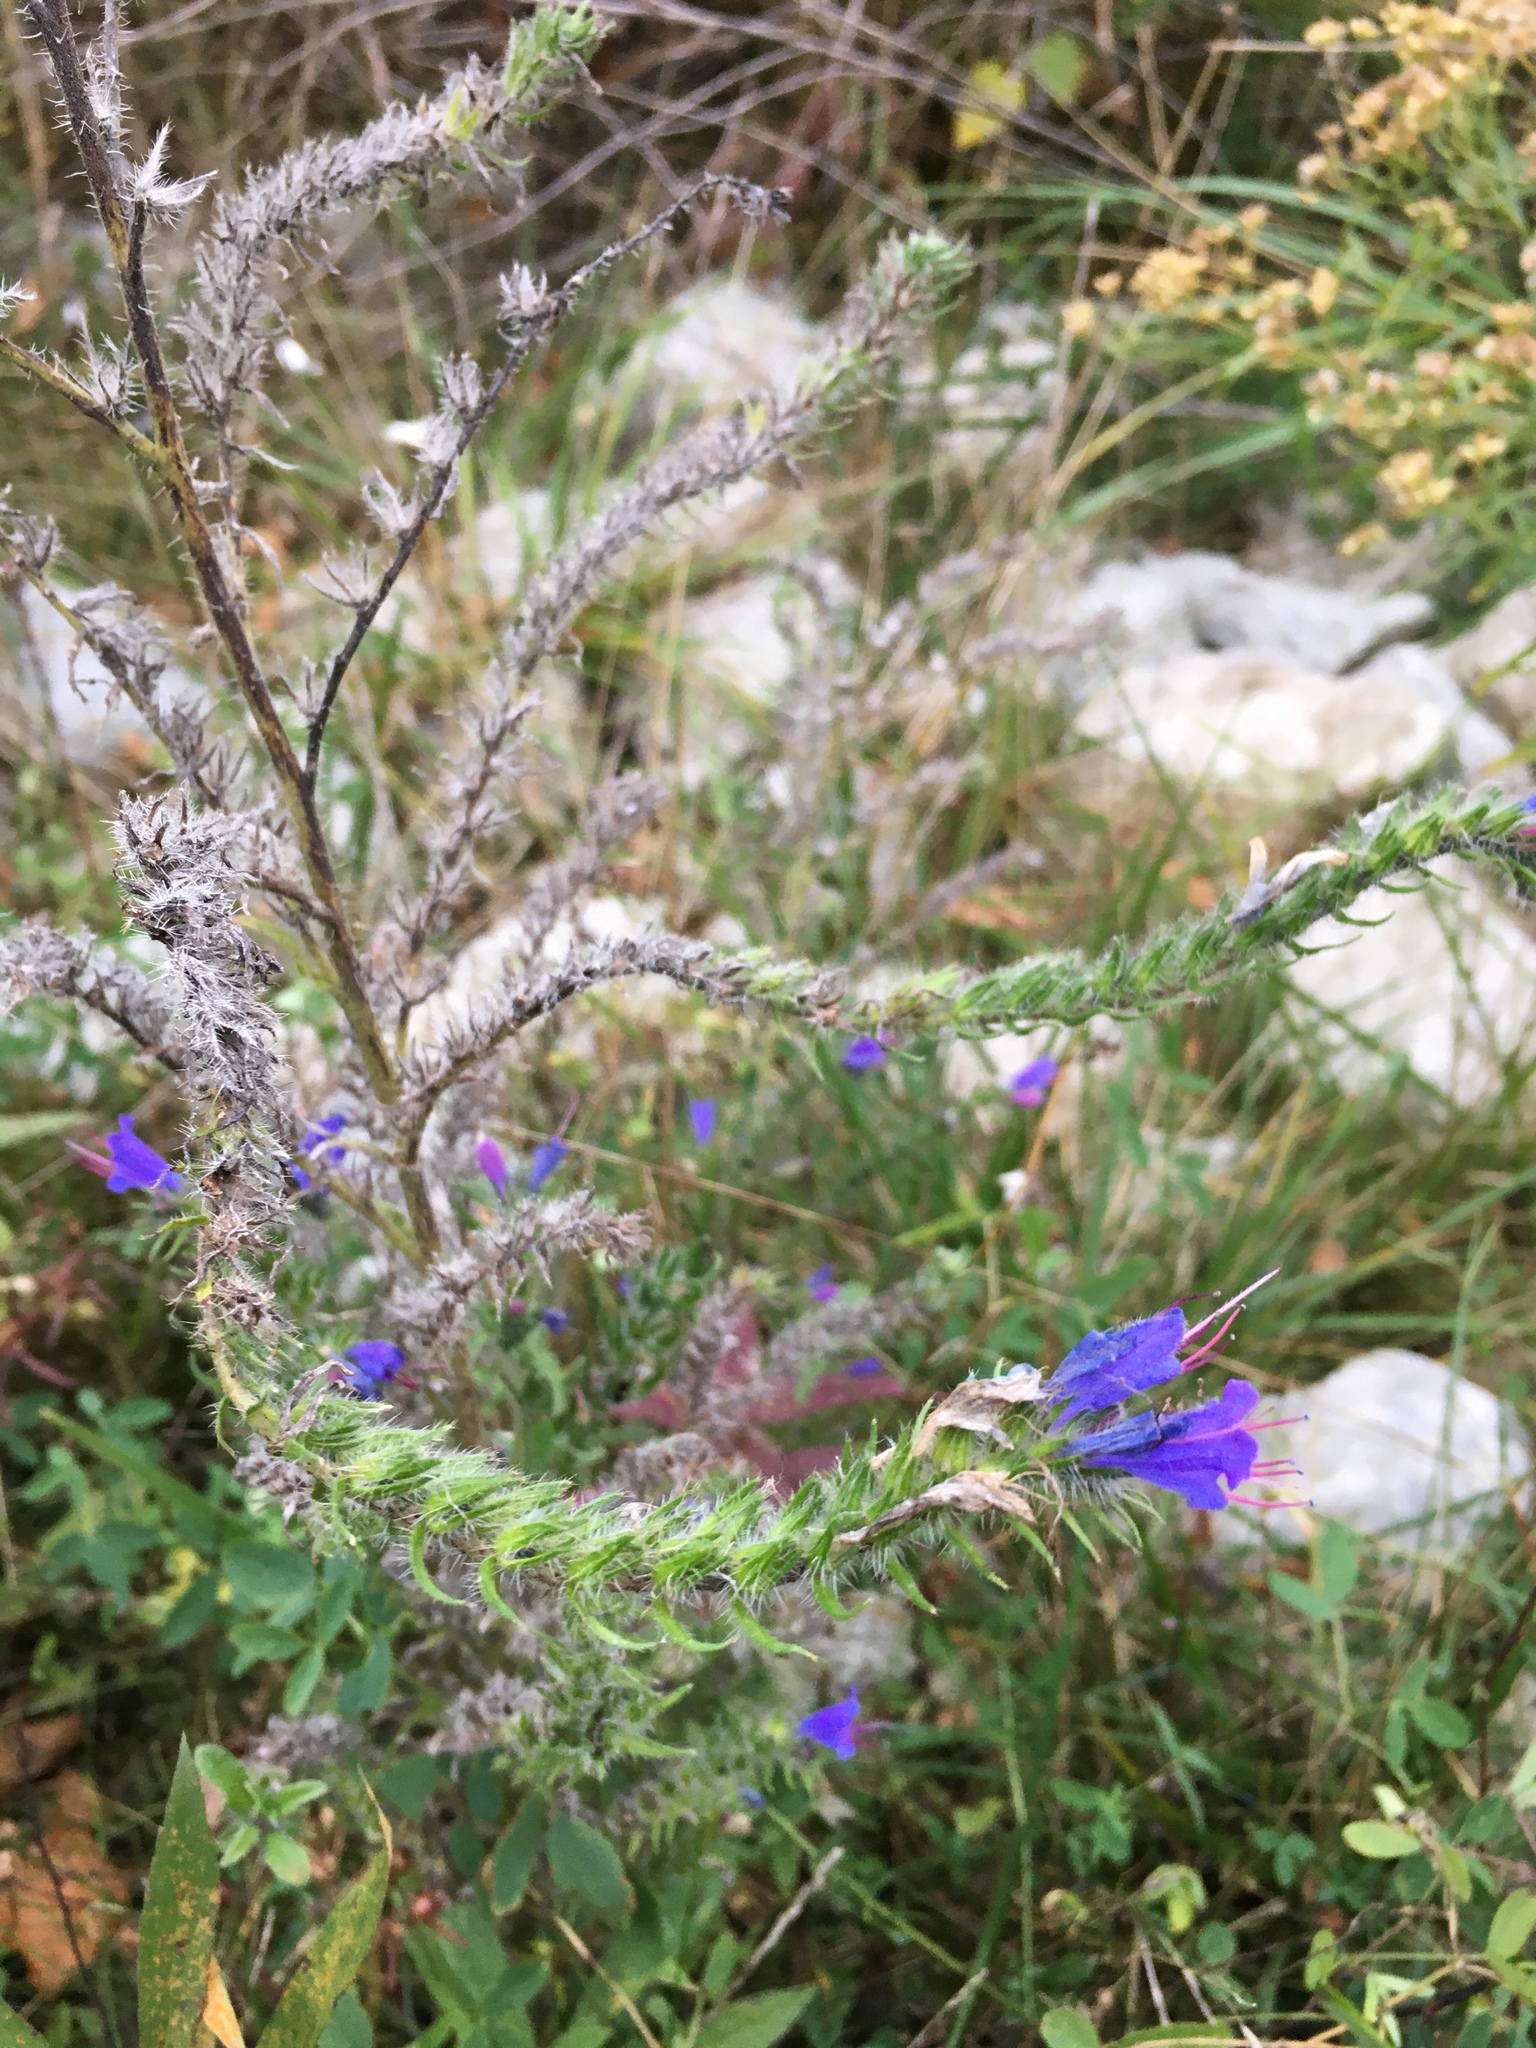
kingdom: Plantae
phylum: Tracheophyta
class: Magnoliopsida
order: Boraginales
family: Boraginaceae
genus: Echium
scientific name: Echium vulgare
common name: Common viper's bugloss
